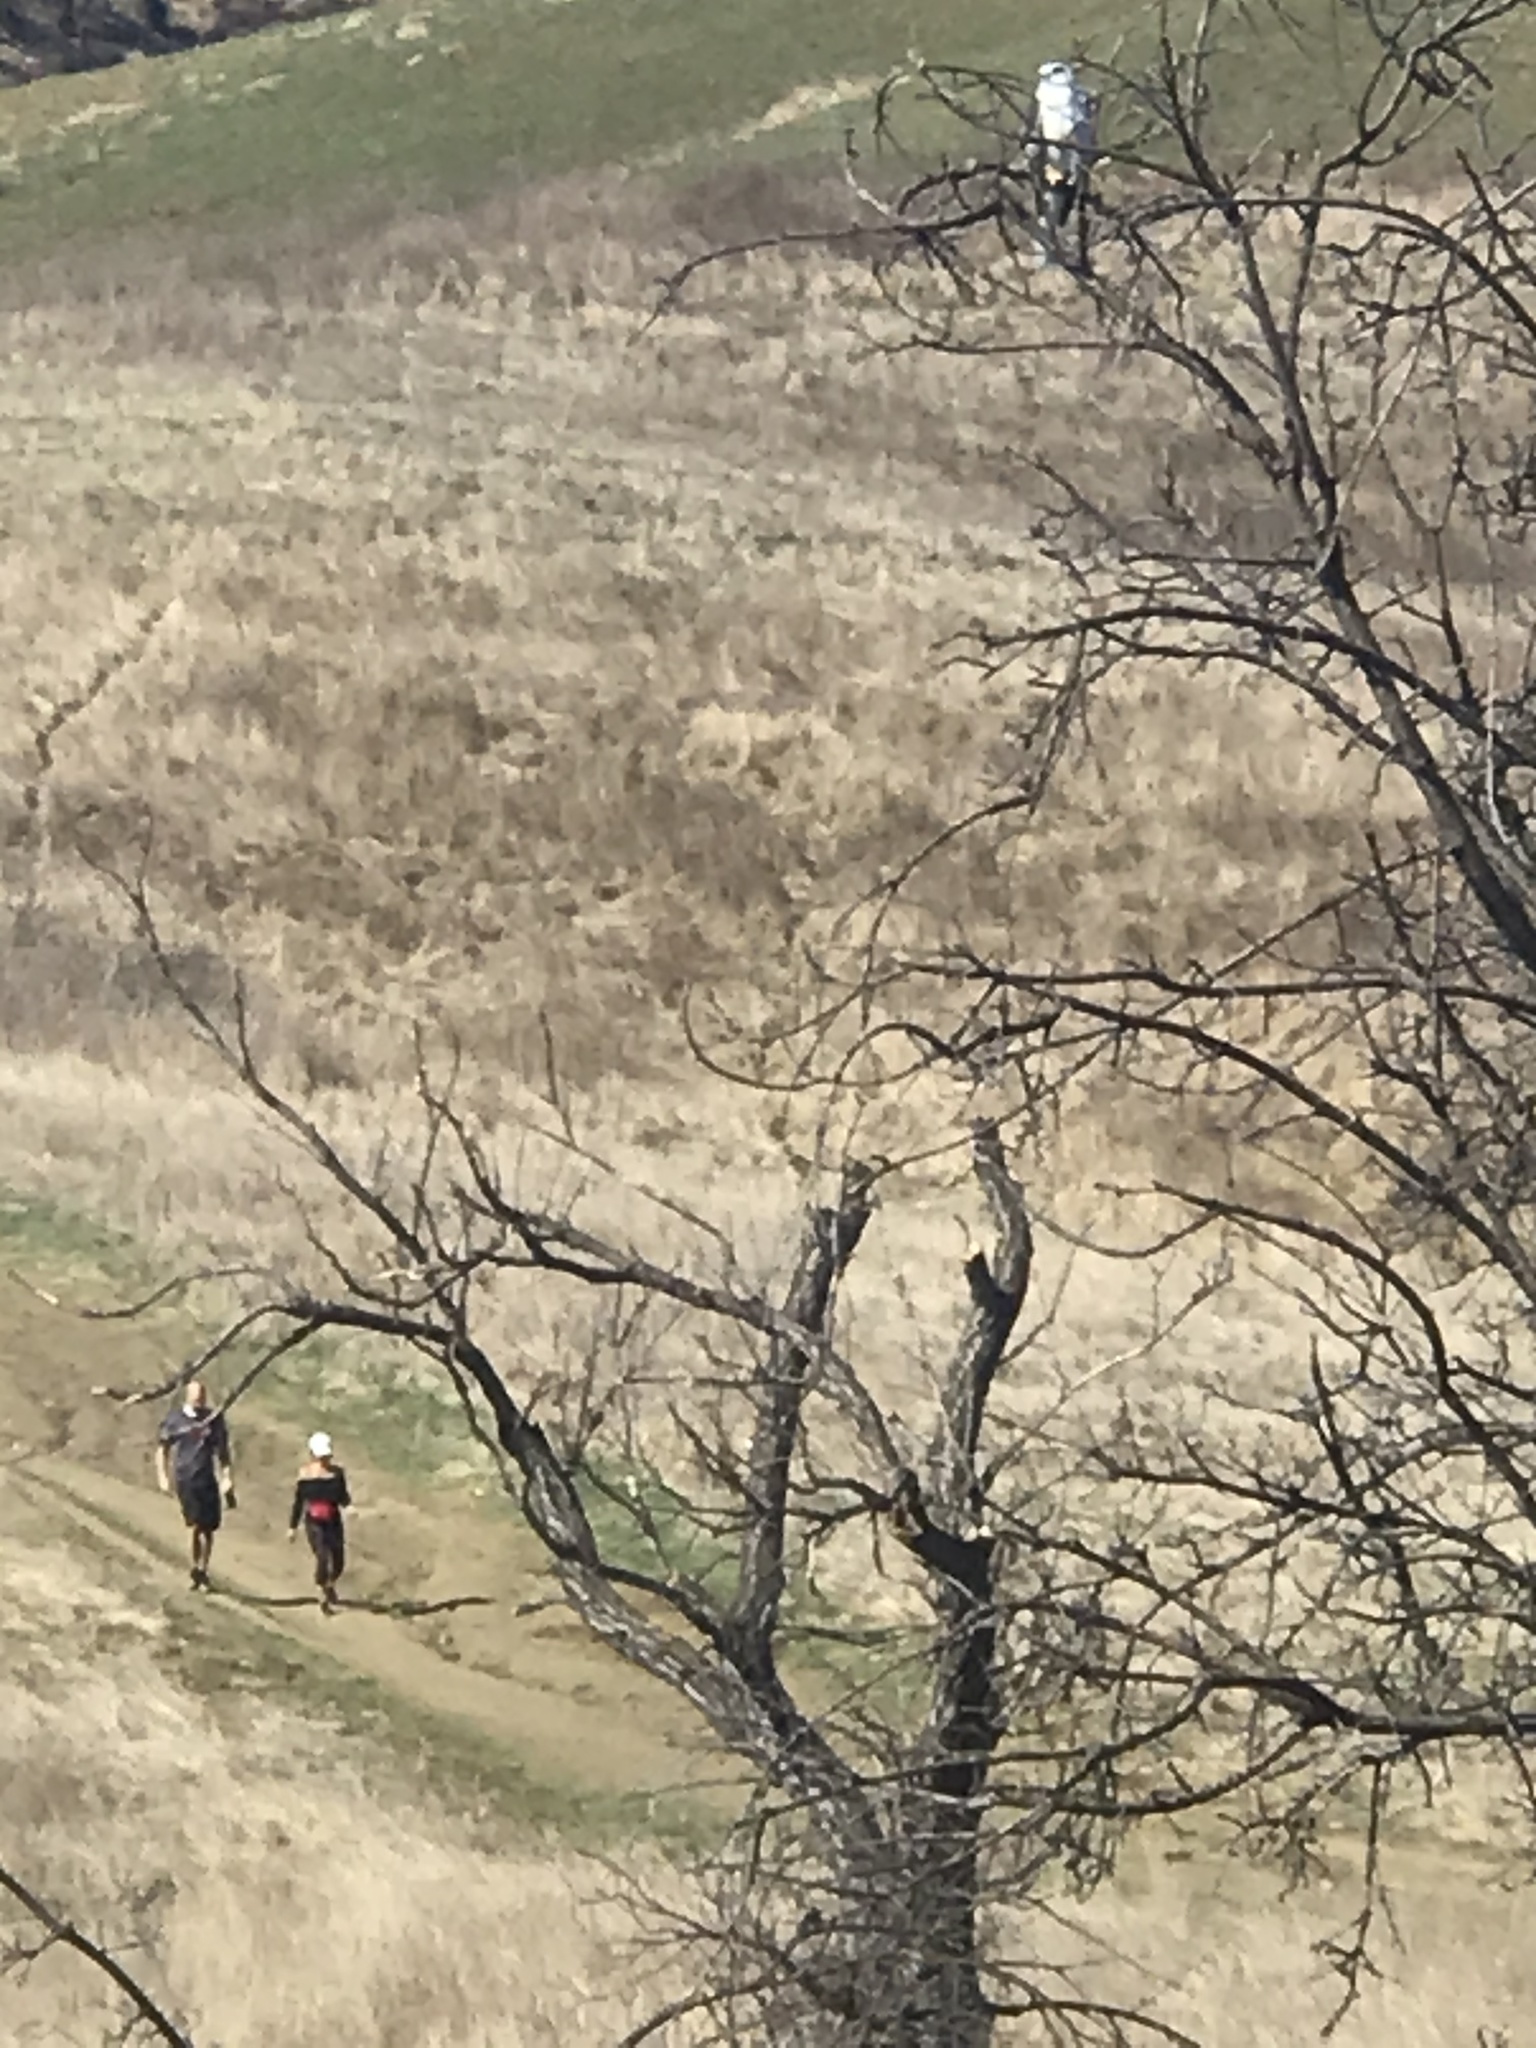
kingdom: Animalia
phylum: Chordata
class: Aves
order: Accipitriformes
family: Accipitridae
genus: Elanus
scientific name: Elanus leucurus
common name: White-tailed kite
